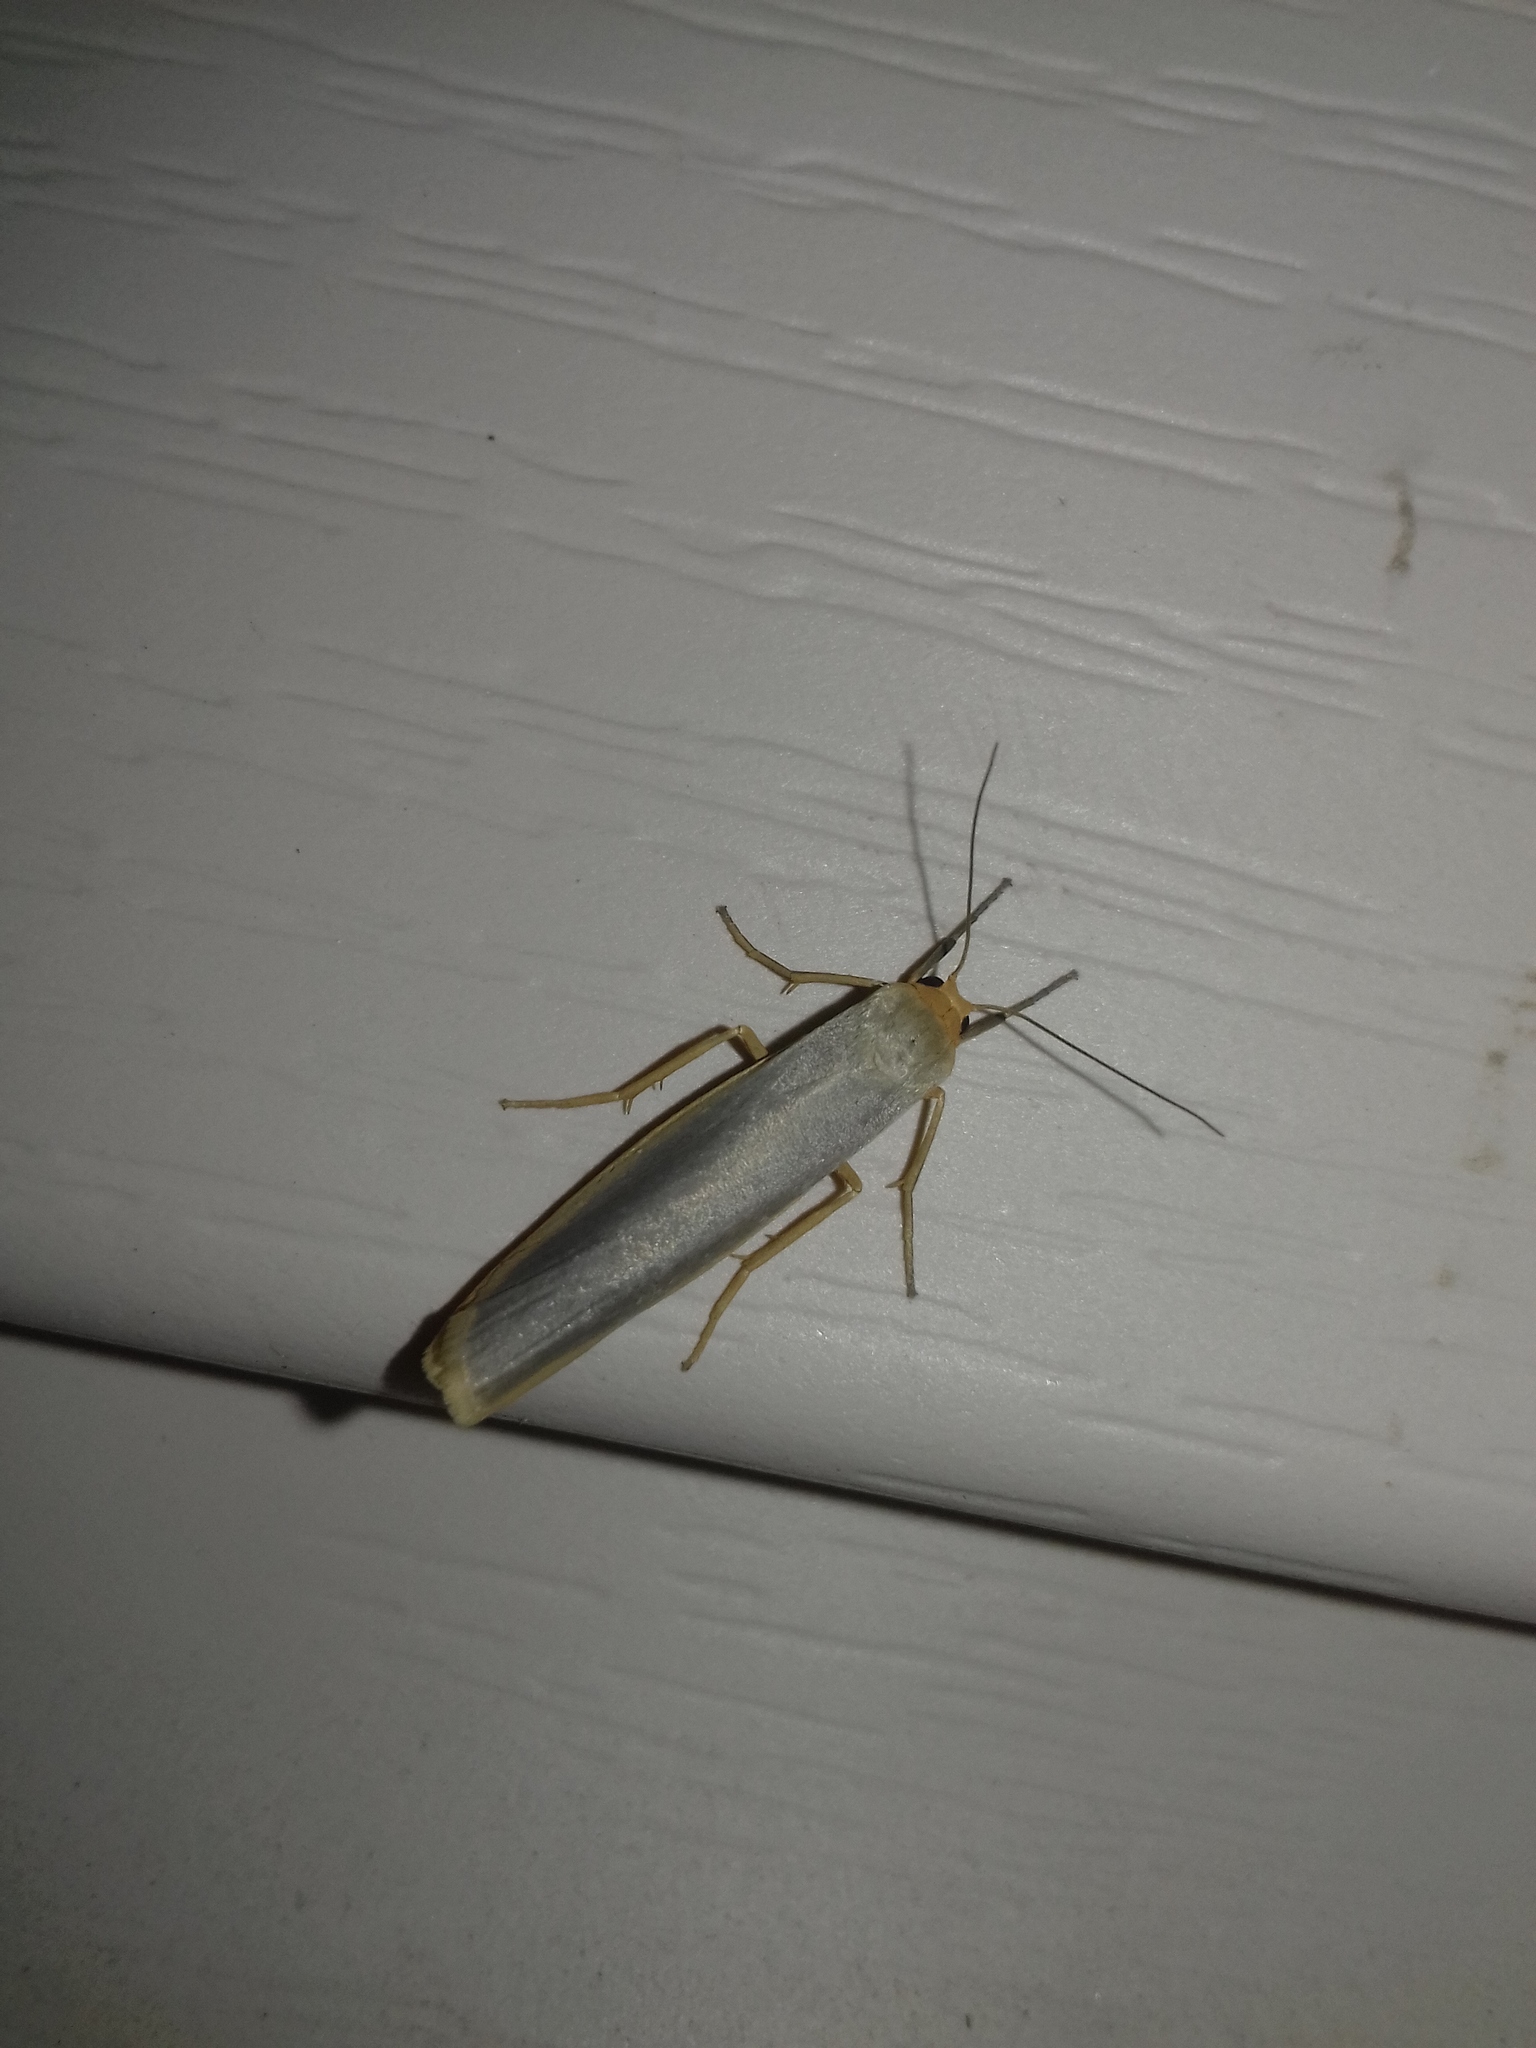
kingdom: Animalia
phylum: Arthropoda
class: Insecta
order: Lepidoptera
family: Erebidae
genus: Eilema
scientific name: Eilema caniola
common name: Hoary footman
